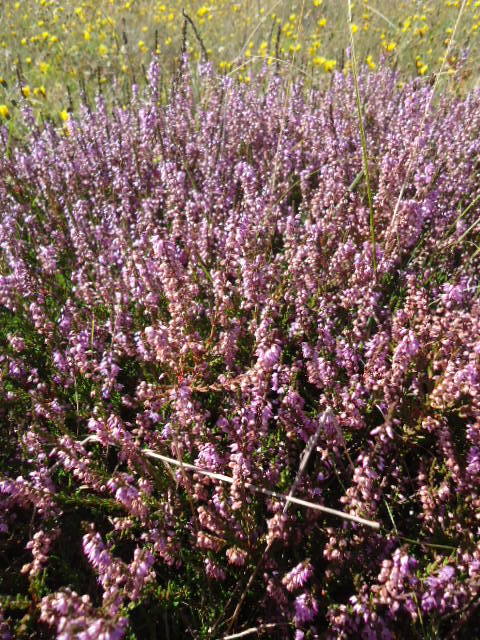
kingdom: Plantae
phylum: Tracheophyta
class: Magnoliopsida
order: Ericales
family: Ericaceae
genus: Calluna
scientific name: Calluna vulgaris
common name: Heather
